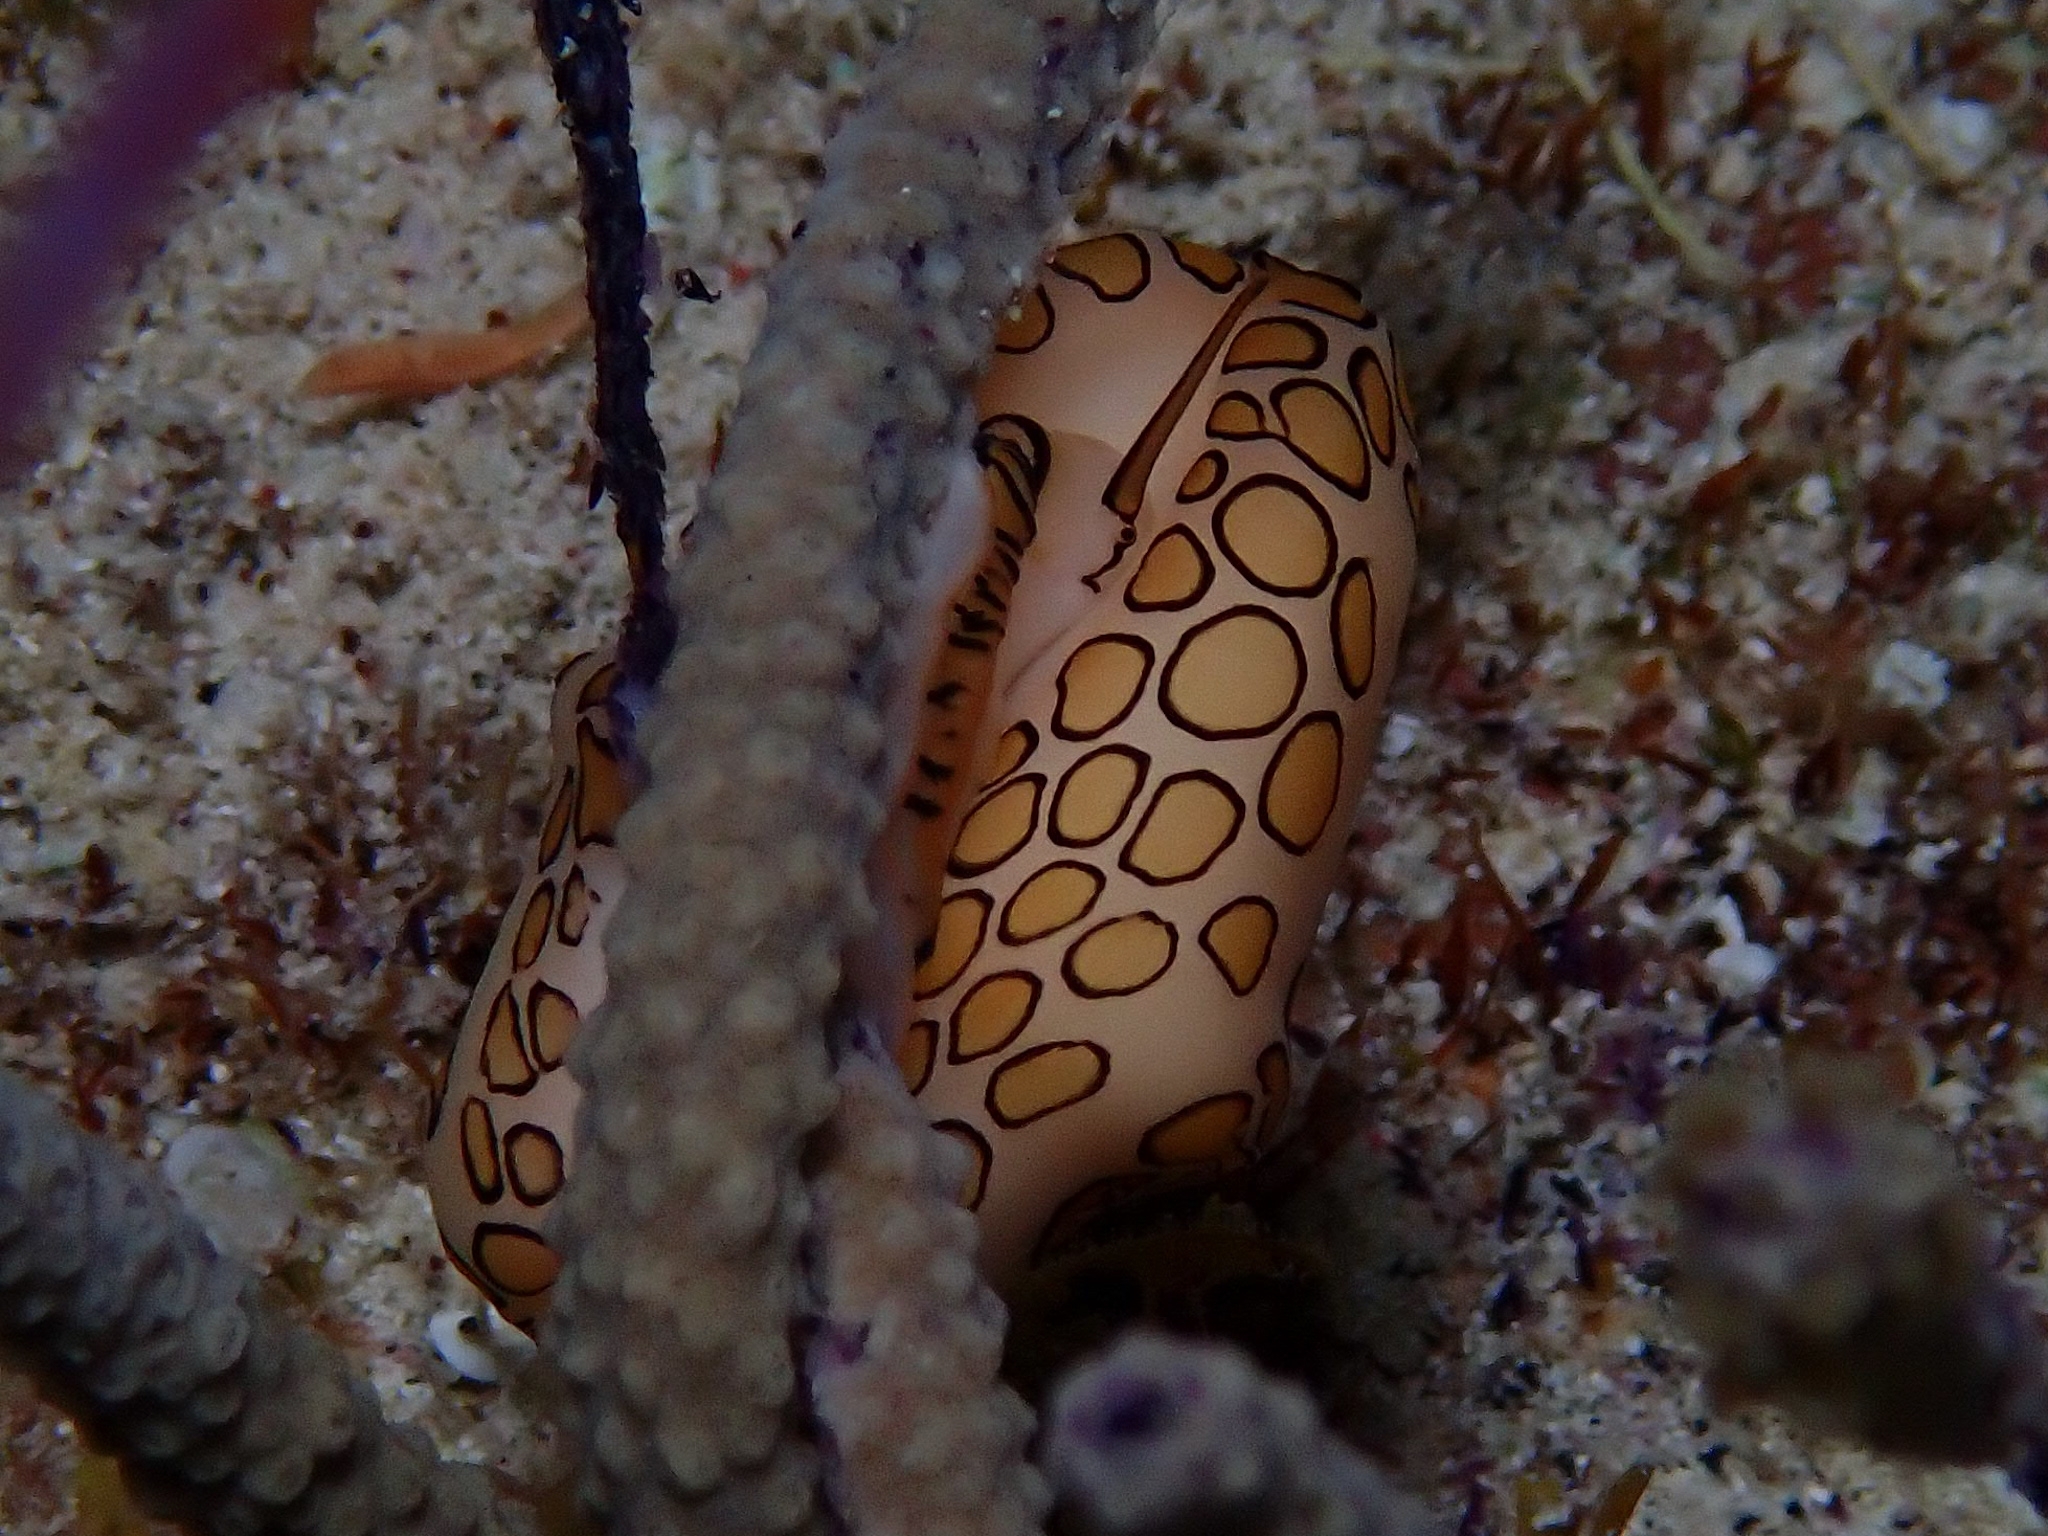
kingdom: Animalia
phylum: Mollusca
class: Gastropoda
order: Littorinimorpha
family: Ovulidae
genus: Cyphoma
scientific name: Cyphoma gibbosum
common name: Flamingo tongue
